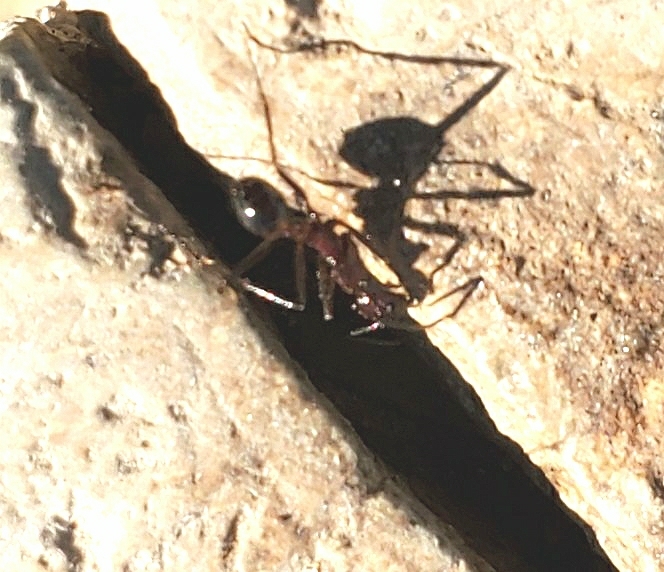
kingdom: Animalia
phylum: Arthropoda
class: Insecta
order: Hymenoptera
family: Formicidae
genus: Novomessor
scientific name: Novomessor cockerelli
